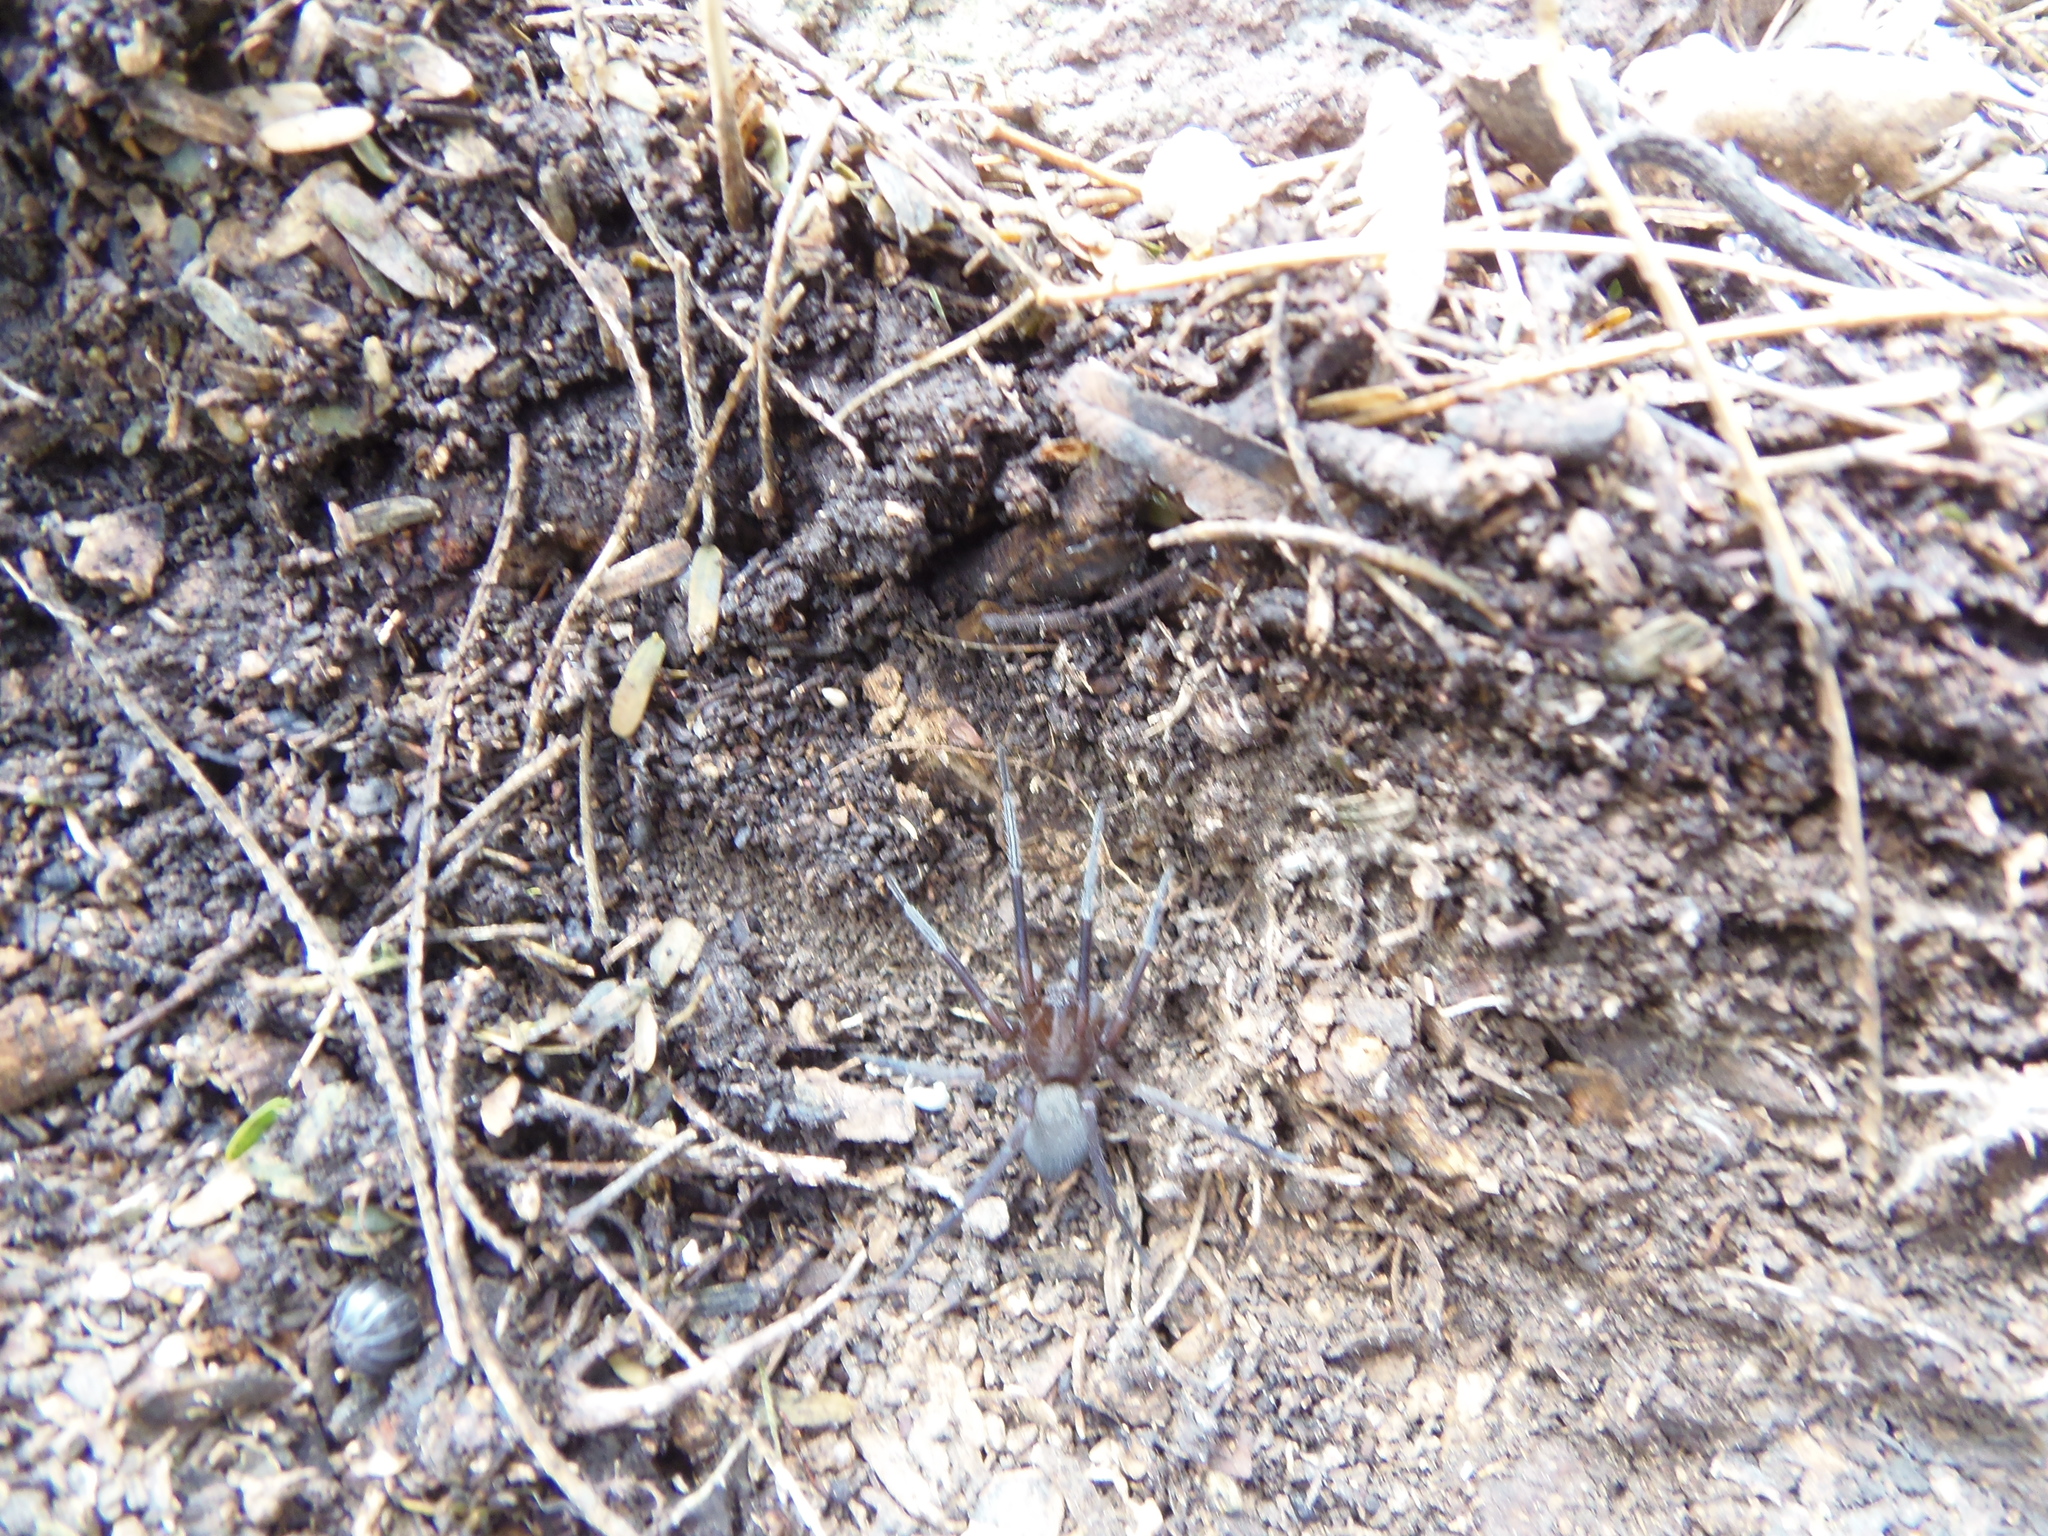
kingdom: Animalia
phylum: Arthropoda
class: Arachnida
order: Araneae
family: Zoropsidae
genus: Zorocrates
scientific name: Zorocrates
